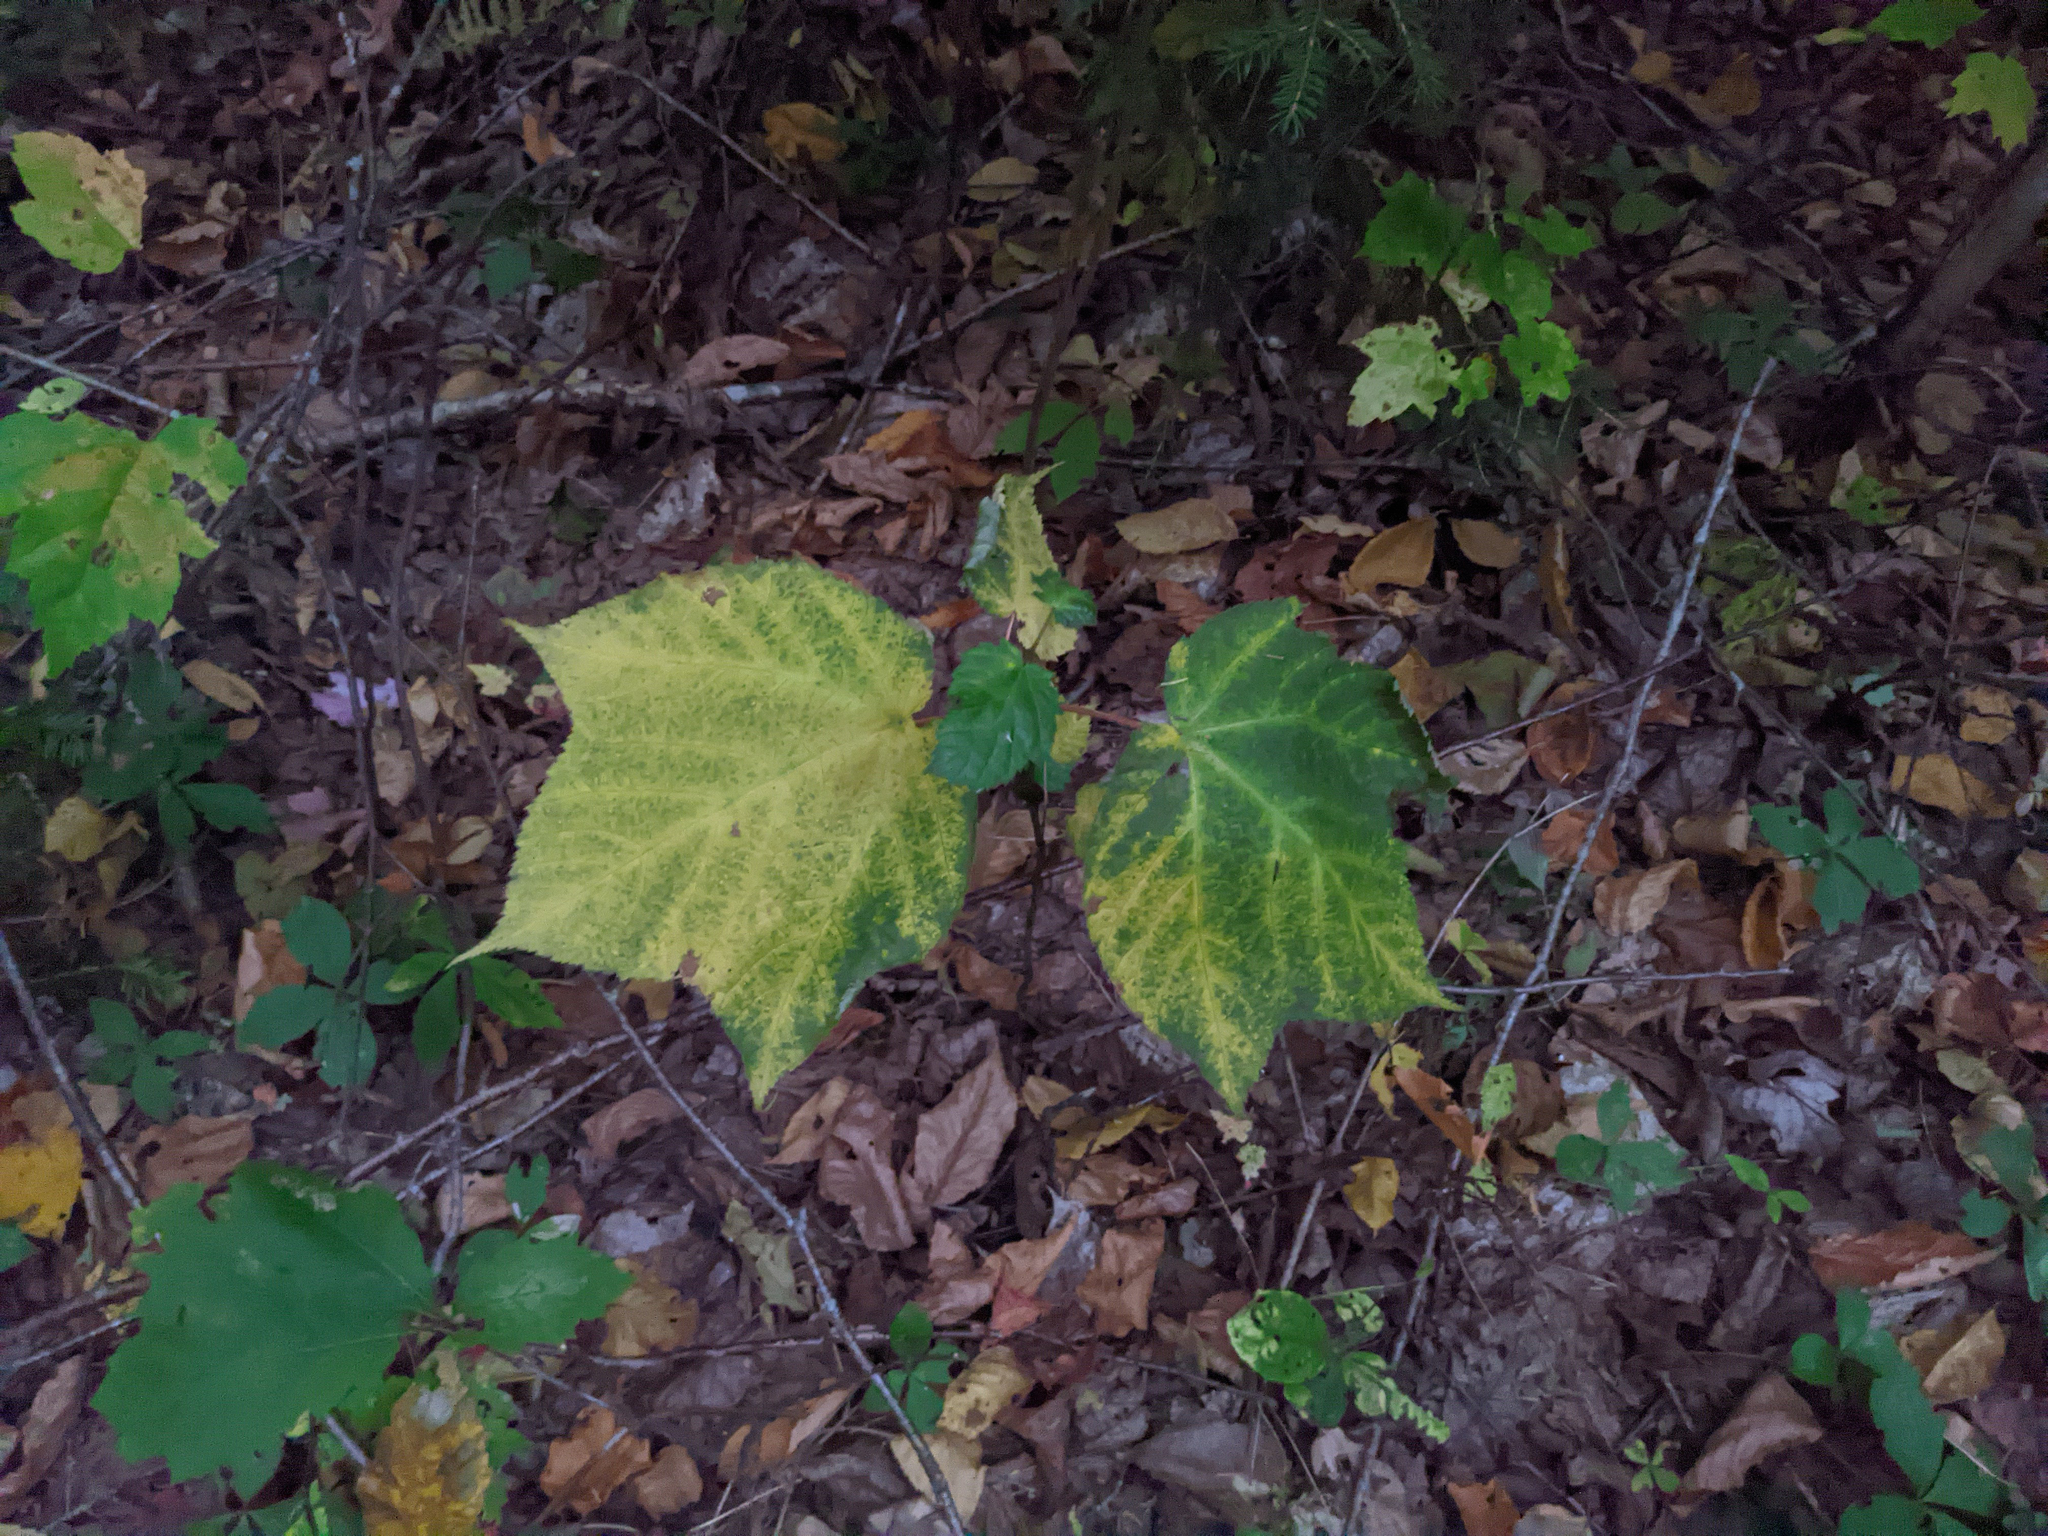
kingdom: Plantae
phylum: Tracheophyta
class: Magnoliopsida
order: Sapindales
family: Sapindaceae
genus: Acer
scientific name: Acer pensylvanicum
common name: Moosewood
